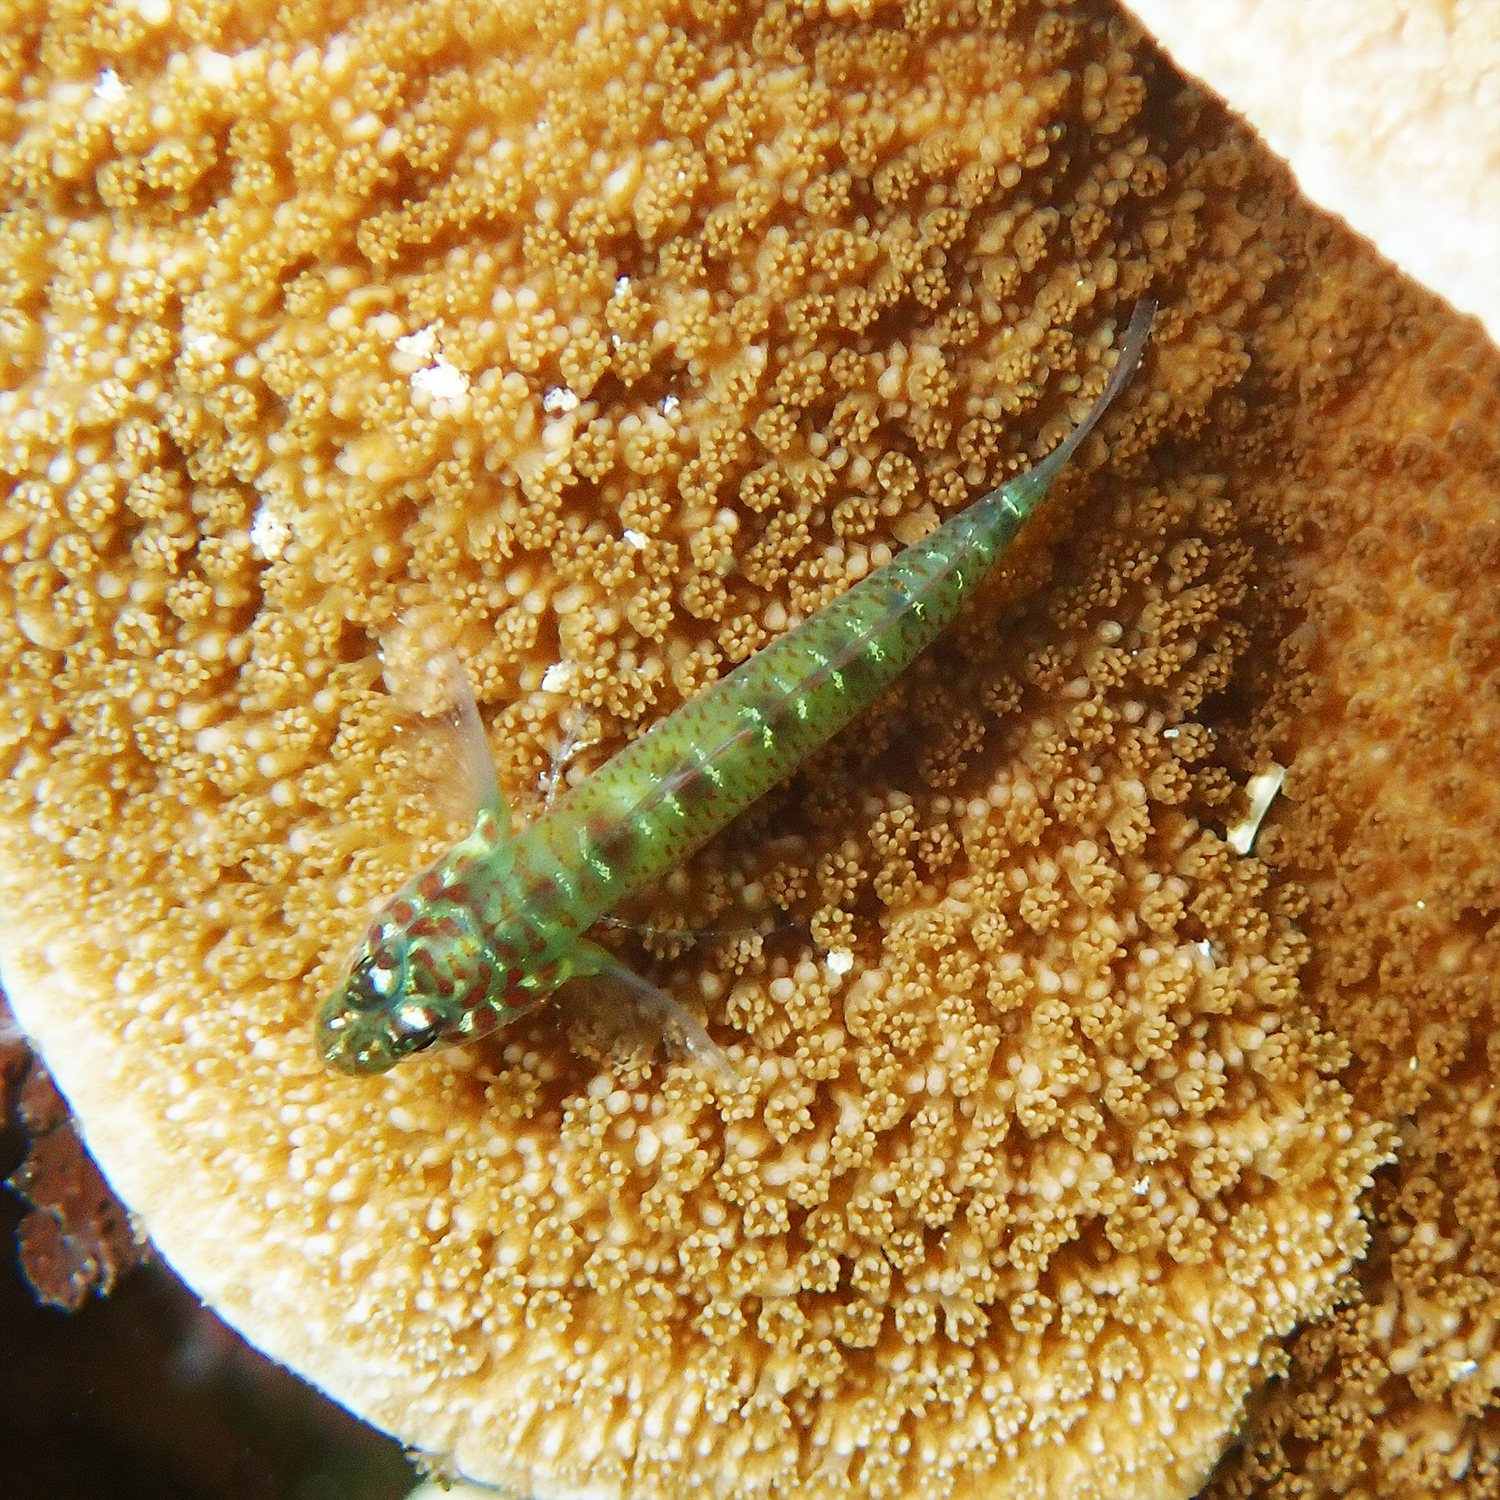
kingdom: Animalia
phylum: Chordata
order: Perciformes
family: Gobiidae
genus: Eviota
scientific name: Eviota hoesei
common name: Doug's eviota
